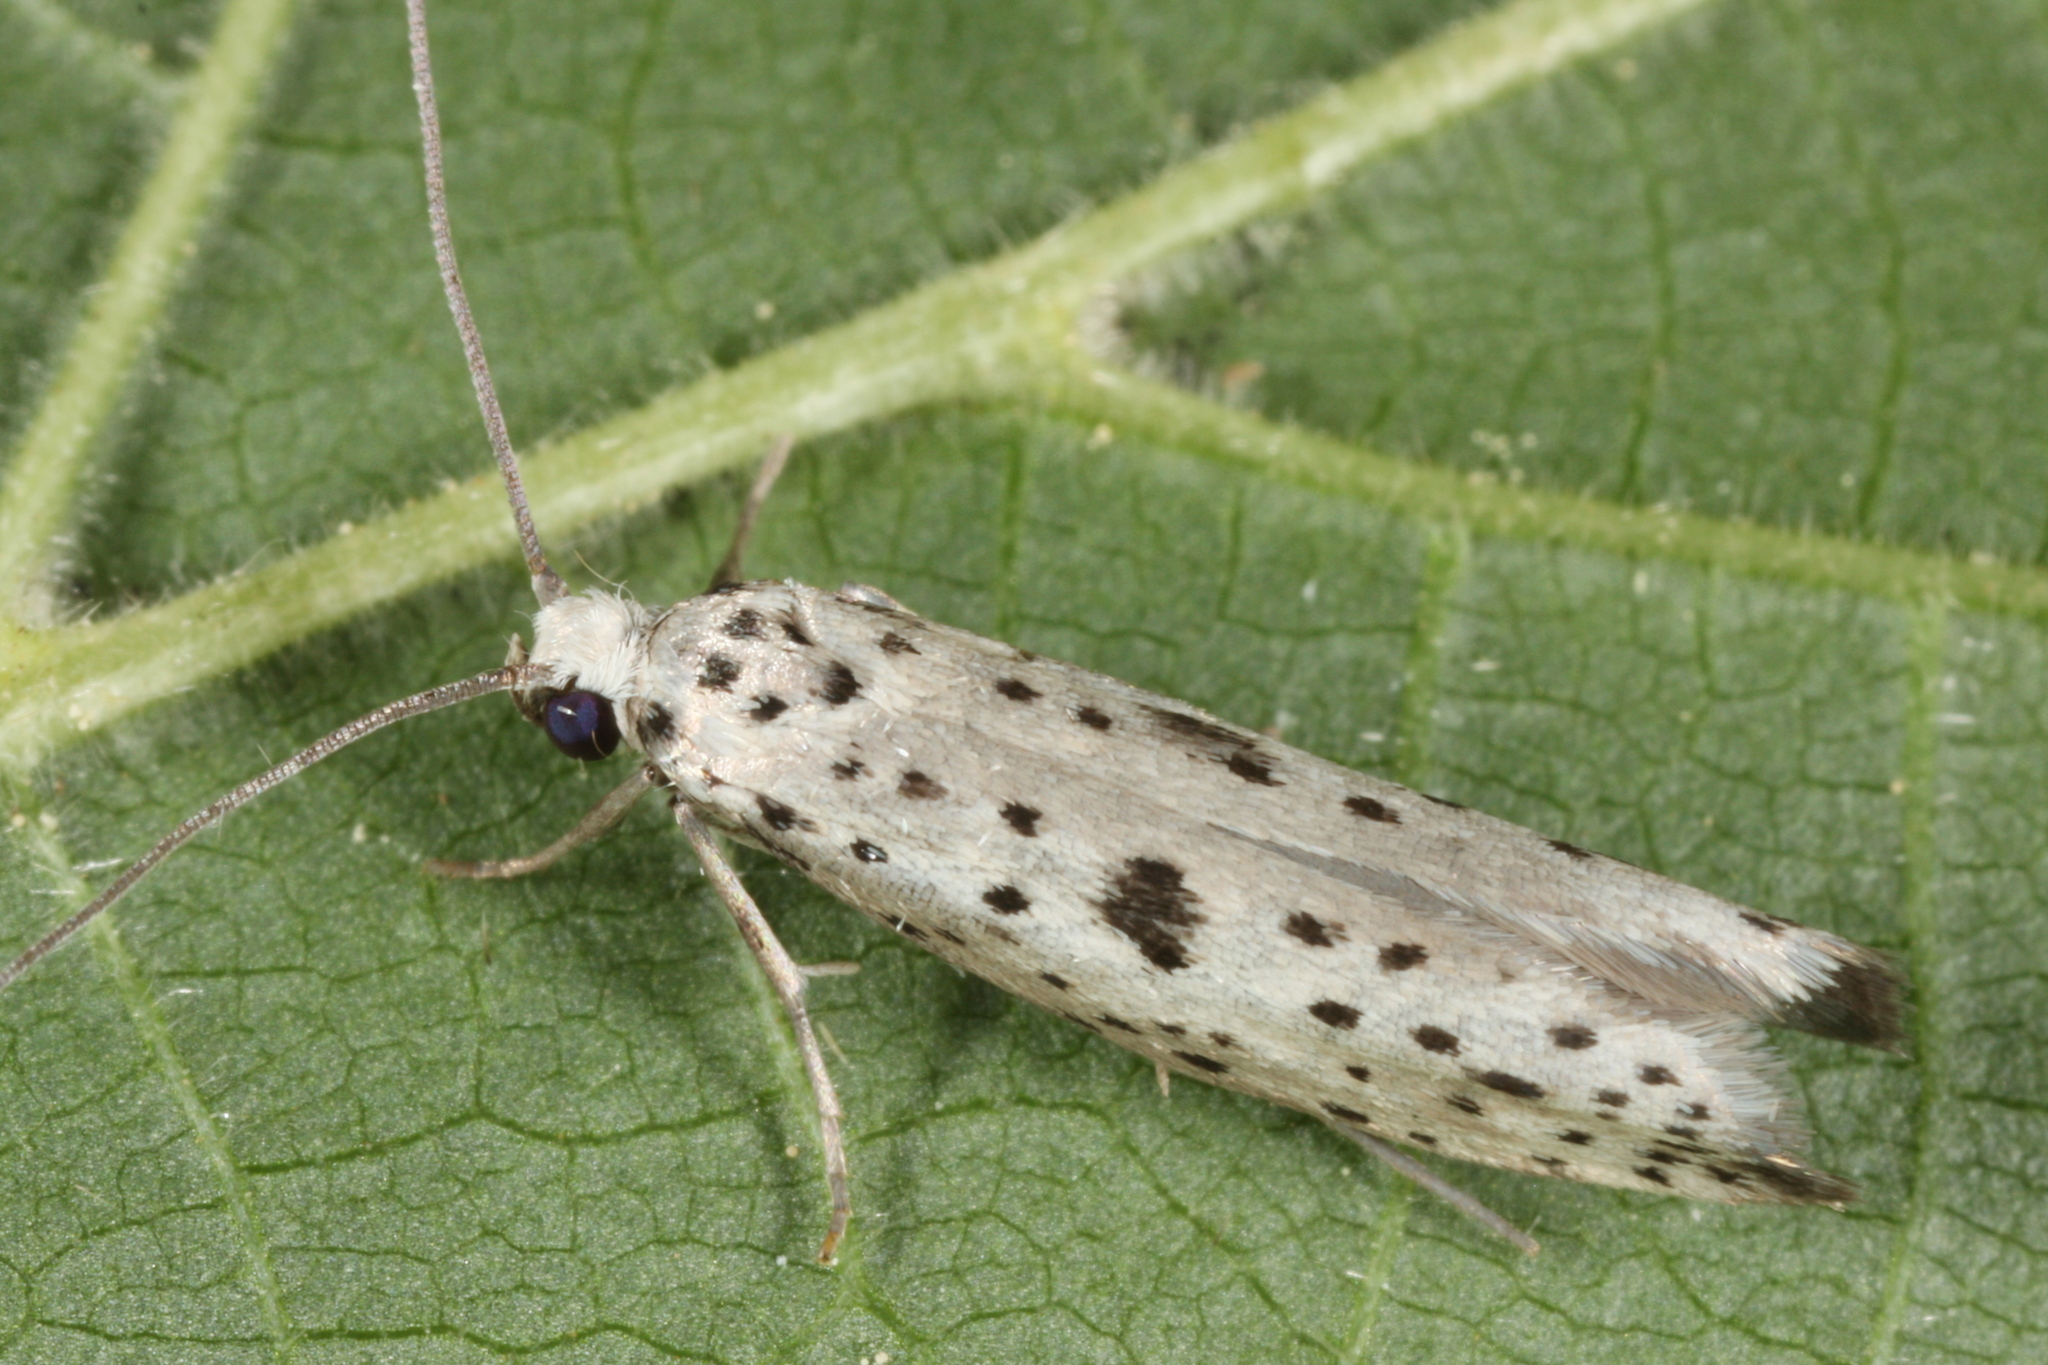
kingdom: Animalia
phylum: Arthropoda
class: Insecta
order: Lepidoptera
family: Yponomeutidae
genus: Yponomeuta
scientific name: Yponomeuta plumbella
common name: Black-tipped ermine
